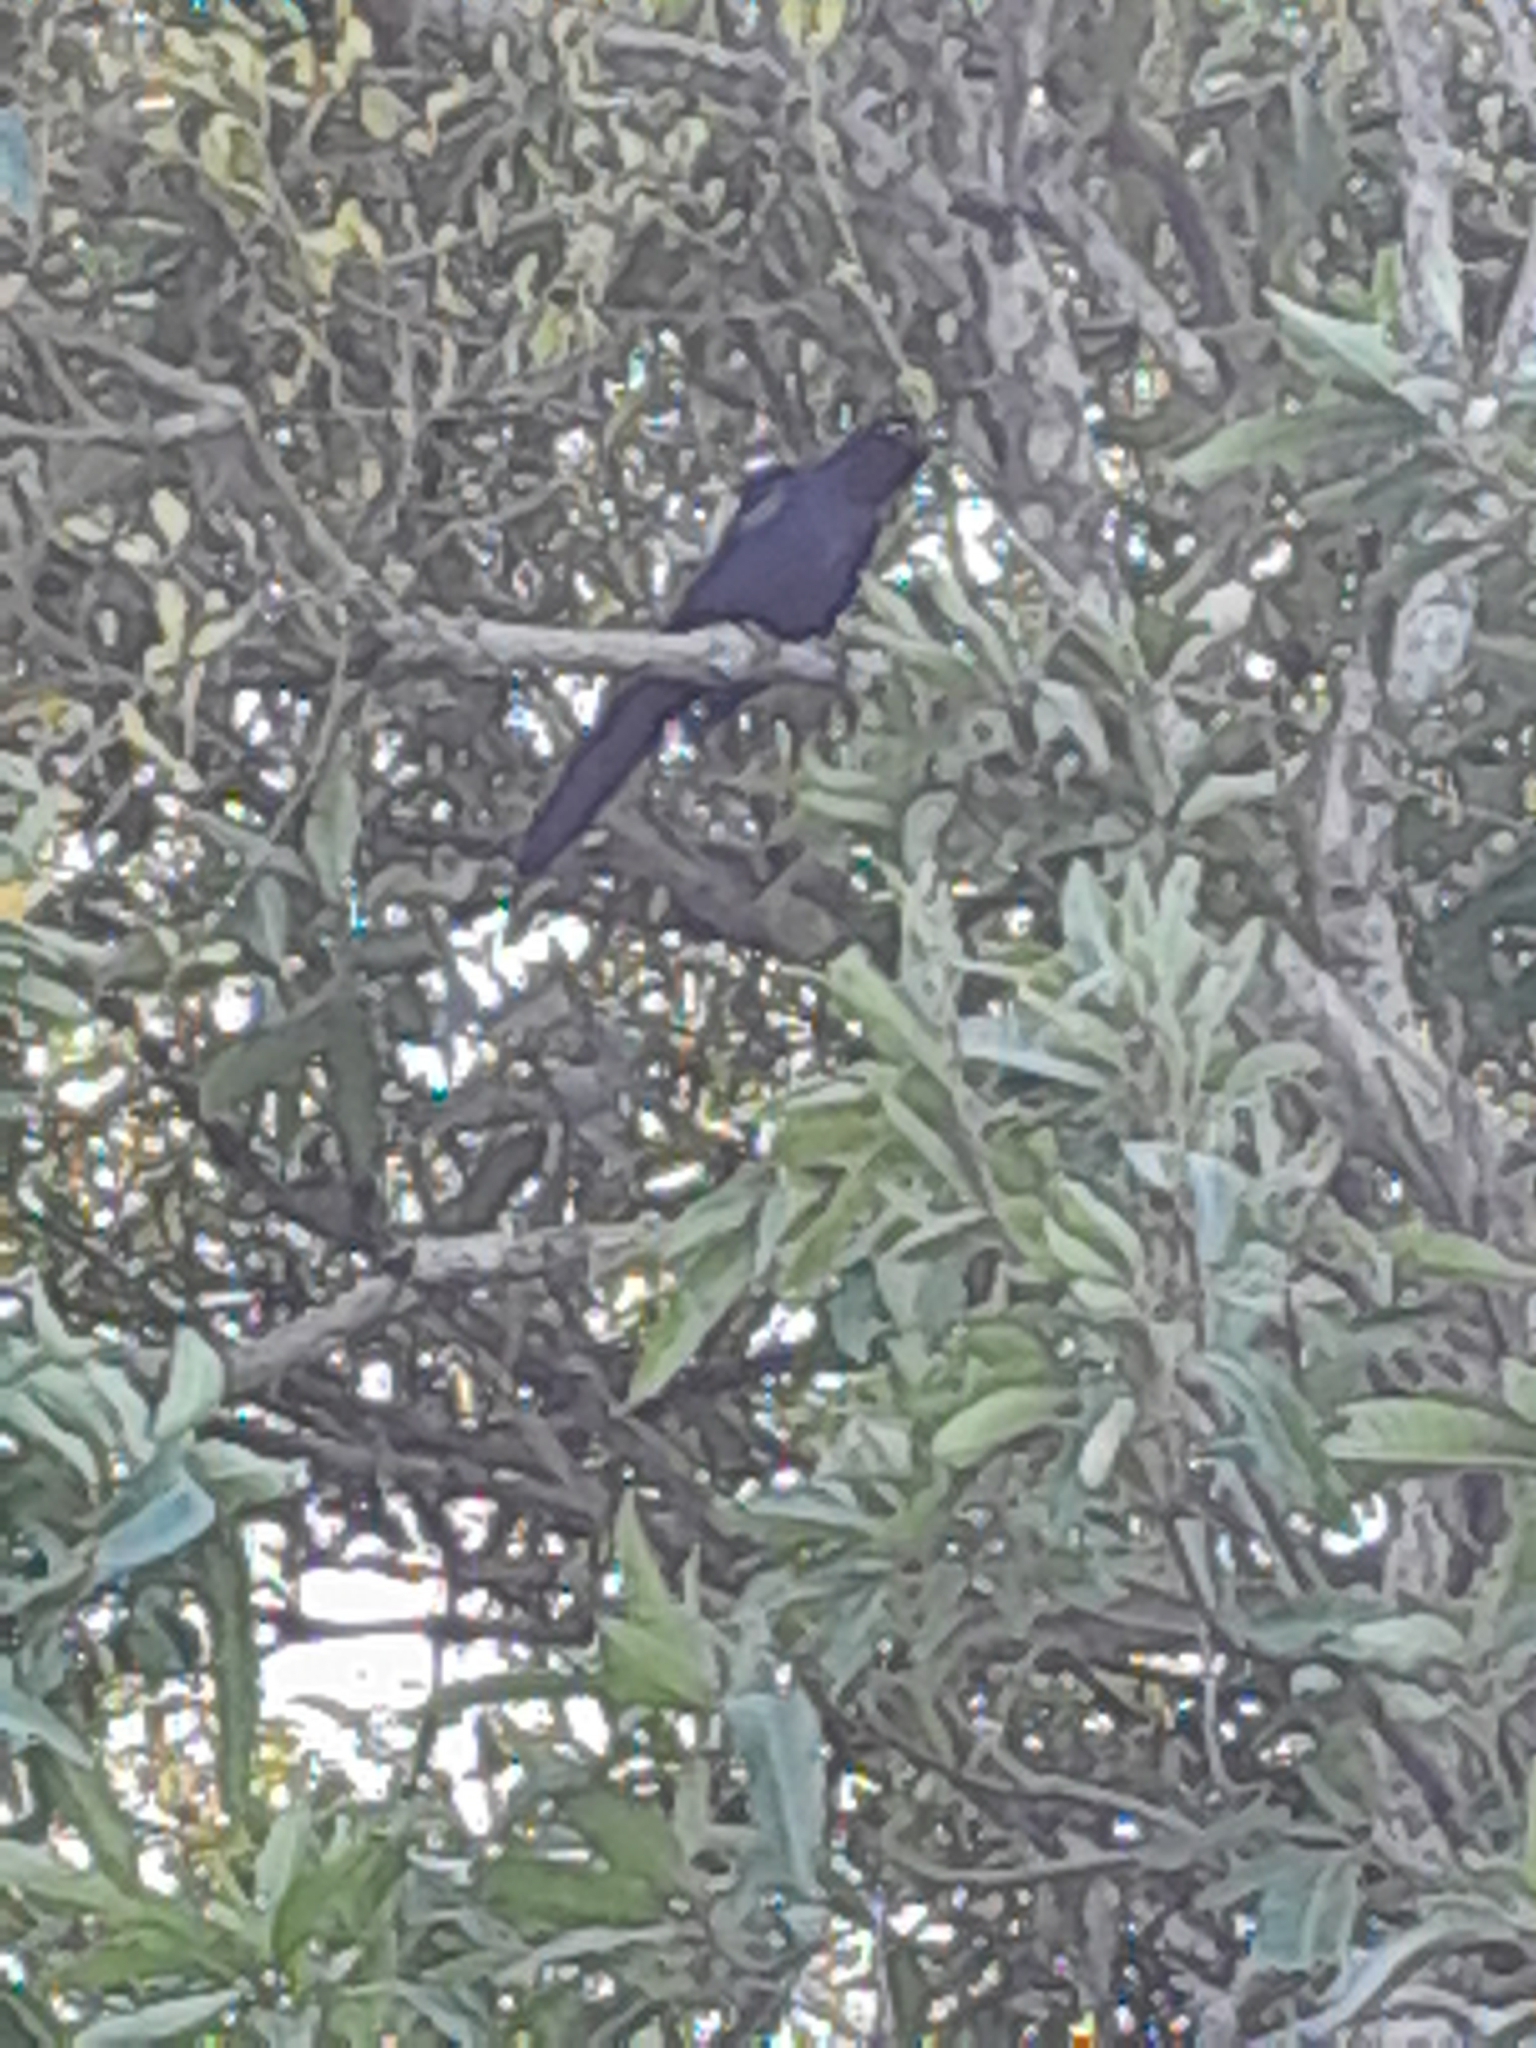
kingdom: Animalia
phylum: Chordata
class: Aves
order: Passeriformes
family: Icteridae
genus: Quiscalus
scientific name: Quiscalus mexicanus
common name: Great-tailed grackle
